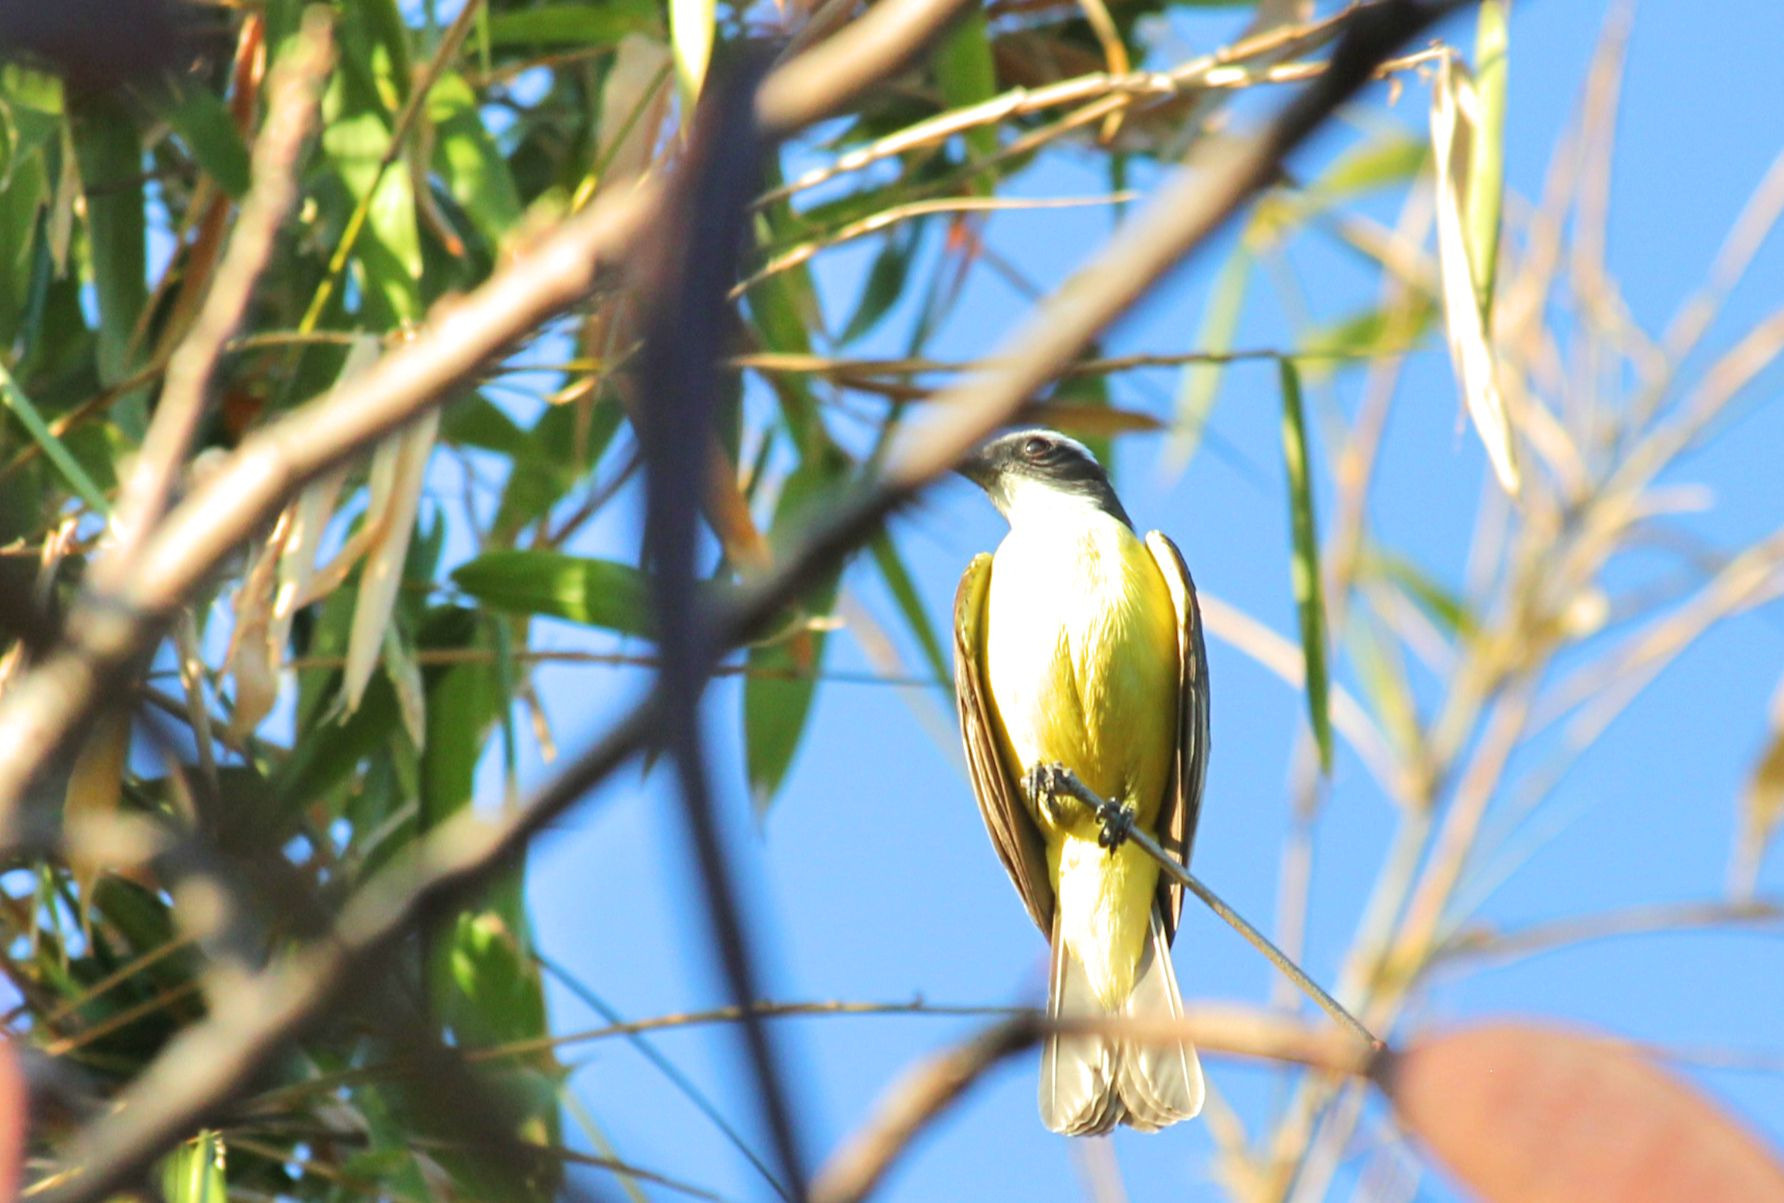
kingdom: Animalia
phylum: Chordata
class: Aves
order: Passeriformes
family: Tyrannidae
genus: Myiozetetes
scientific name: Myiozetetes similis
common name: Social flycatcher
